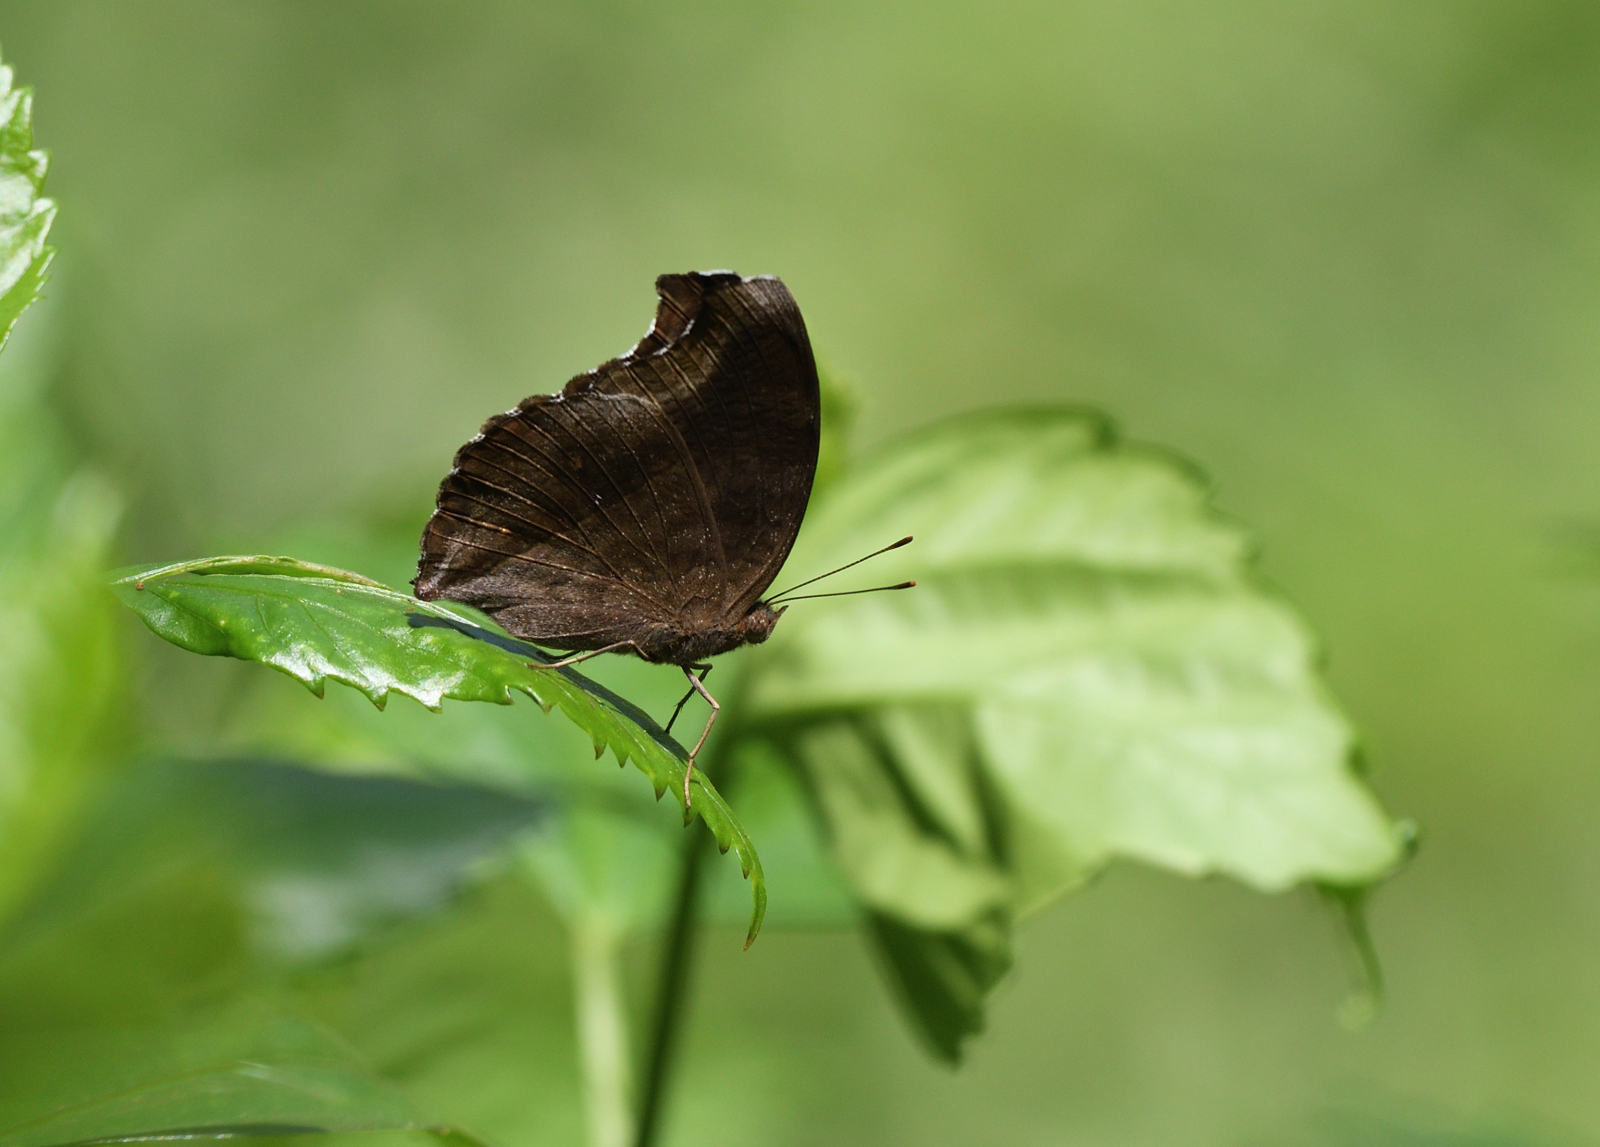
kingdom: Animalia
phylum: Arthropoda
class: Insecta
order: Lepidoptera
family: Nymphalidae
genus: Junonia
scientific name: Junonia iphita
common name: Chocolate pansy
